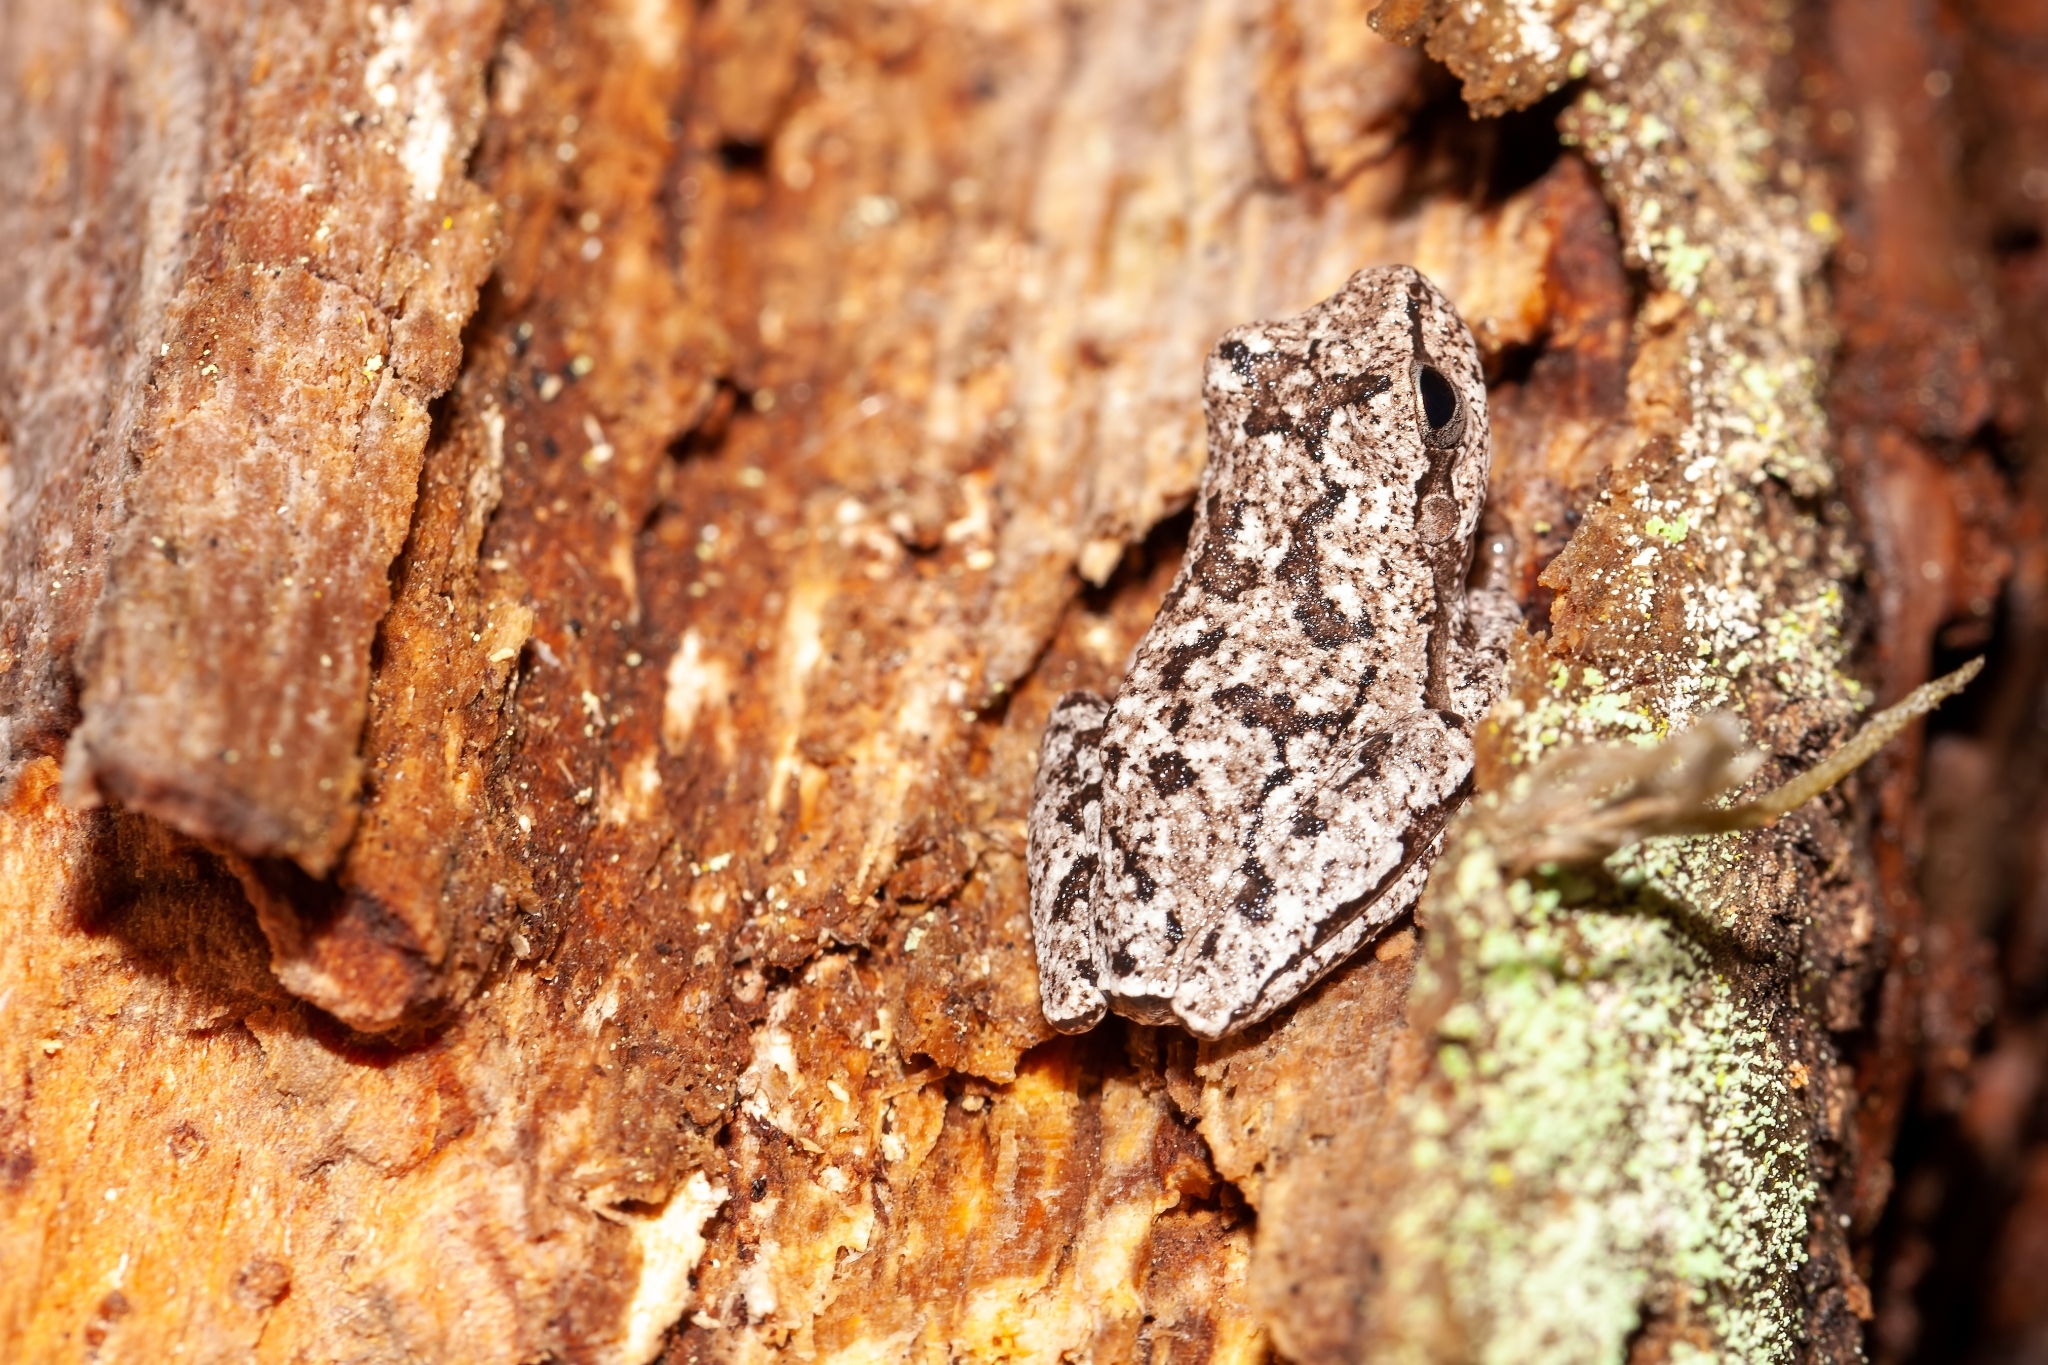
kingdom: Animalia
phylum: Chordata
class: Amphibia
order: Anura
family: Hylidae
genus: Hyla
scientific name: Hyla femoralis
